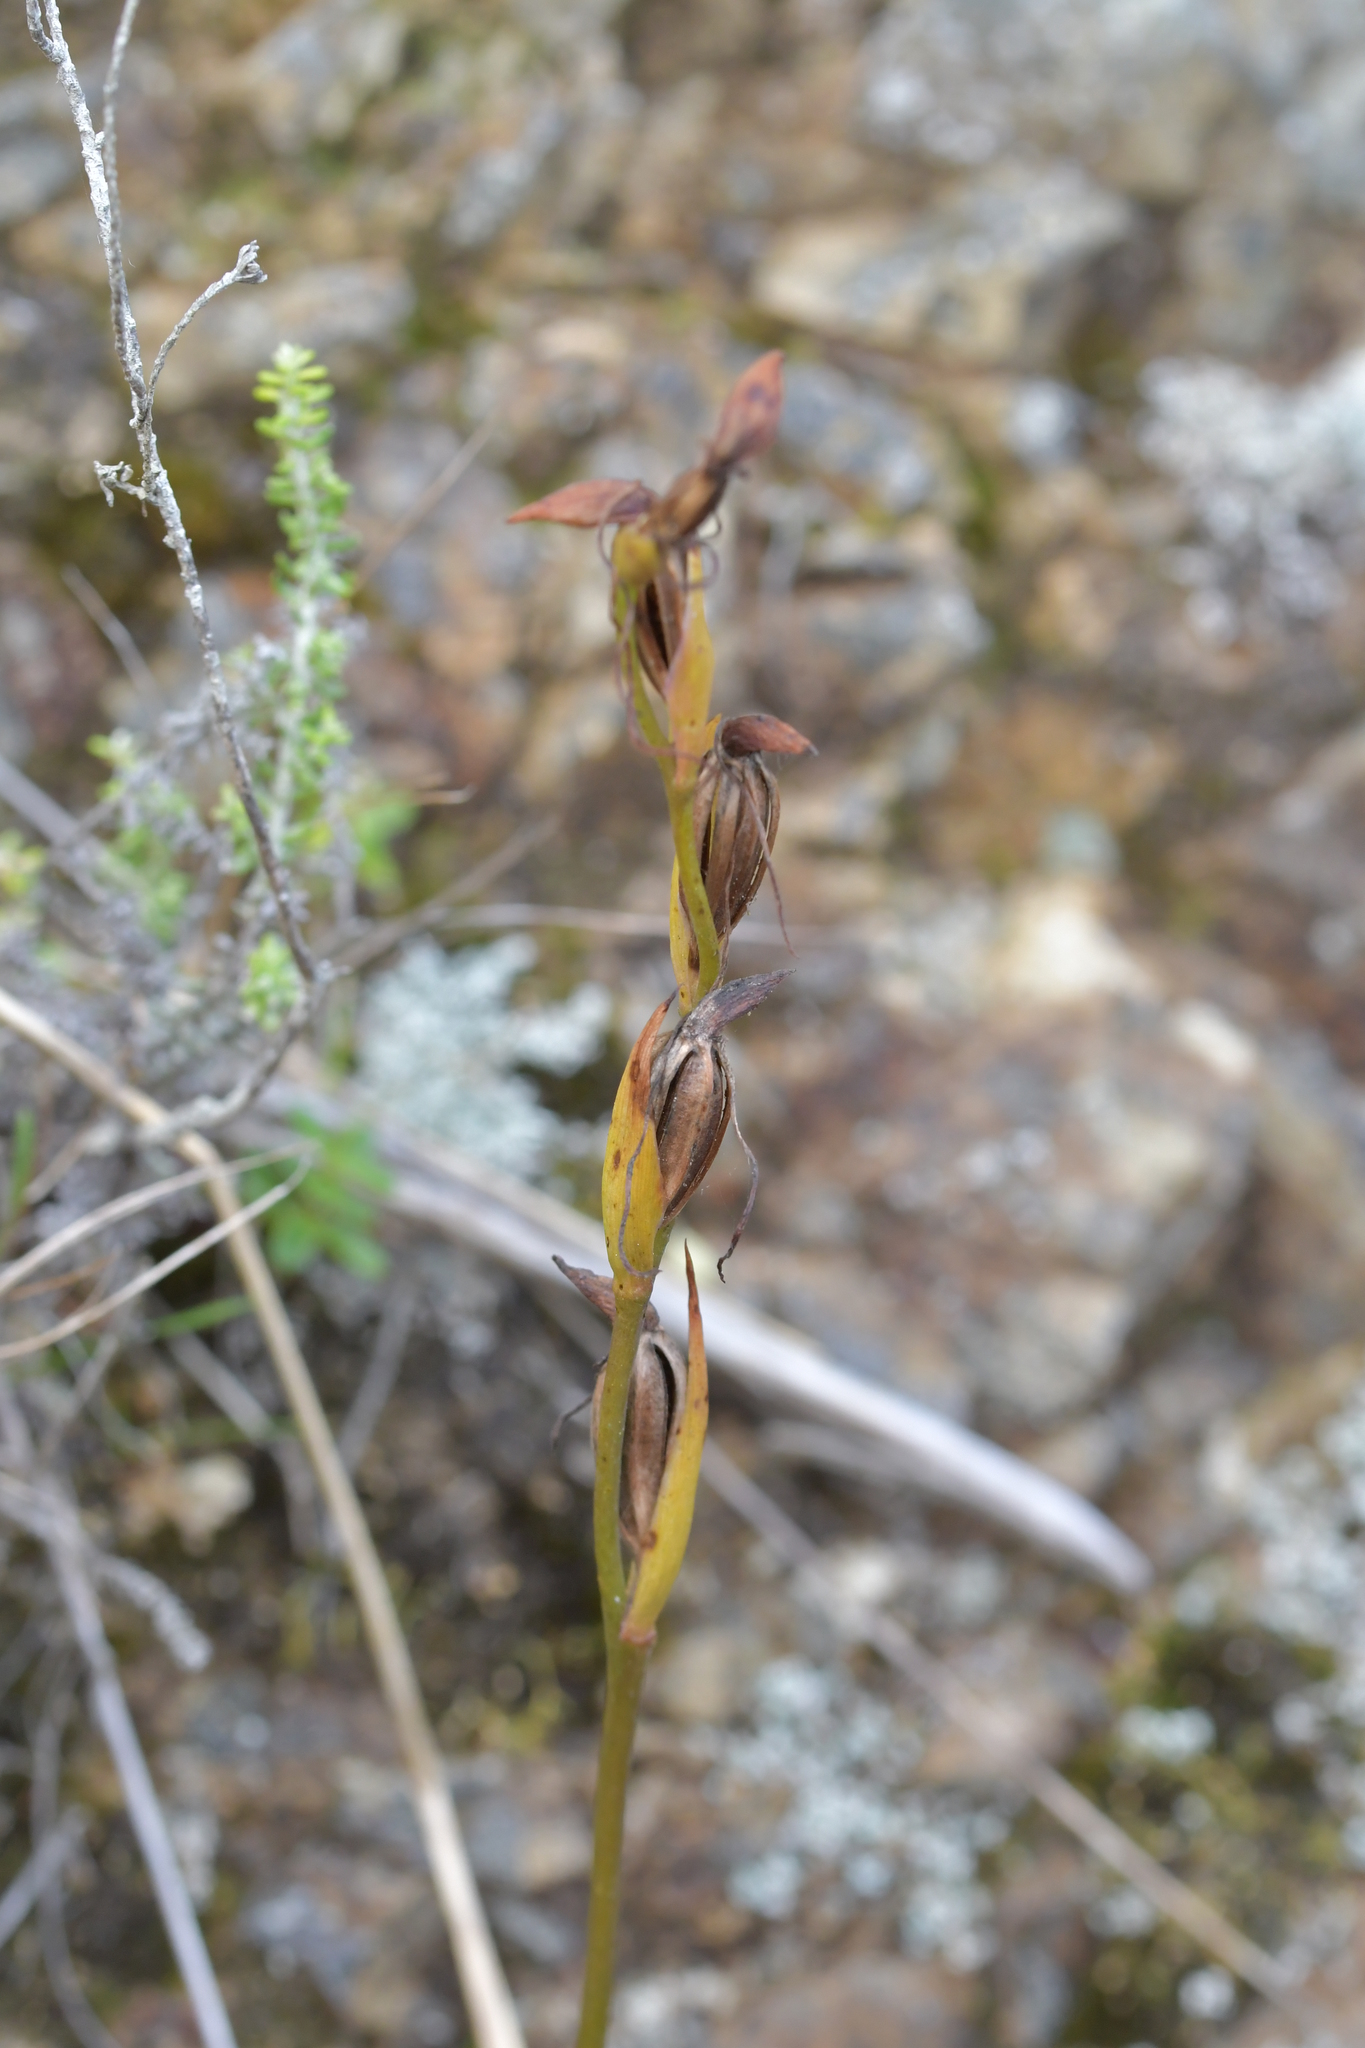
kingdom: Plantae
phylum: Tracheophyta
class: Liliopsida
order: Asparagales
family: Orchidaceae
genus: Orthoceras
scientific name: Orthoceras novae-zeelandiae
